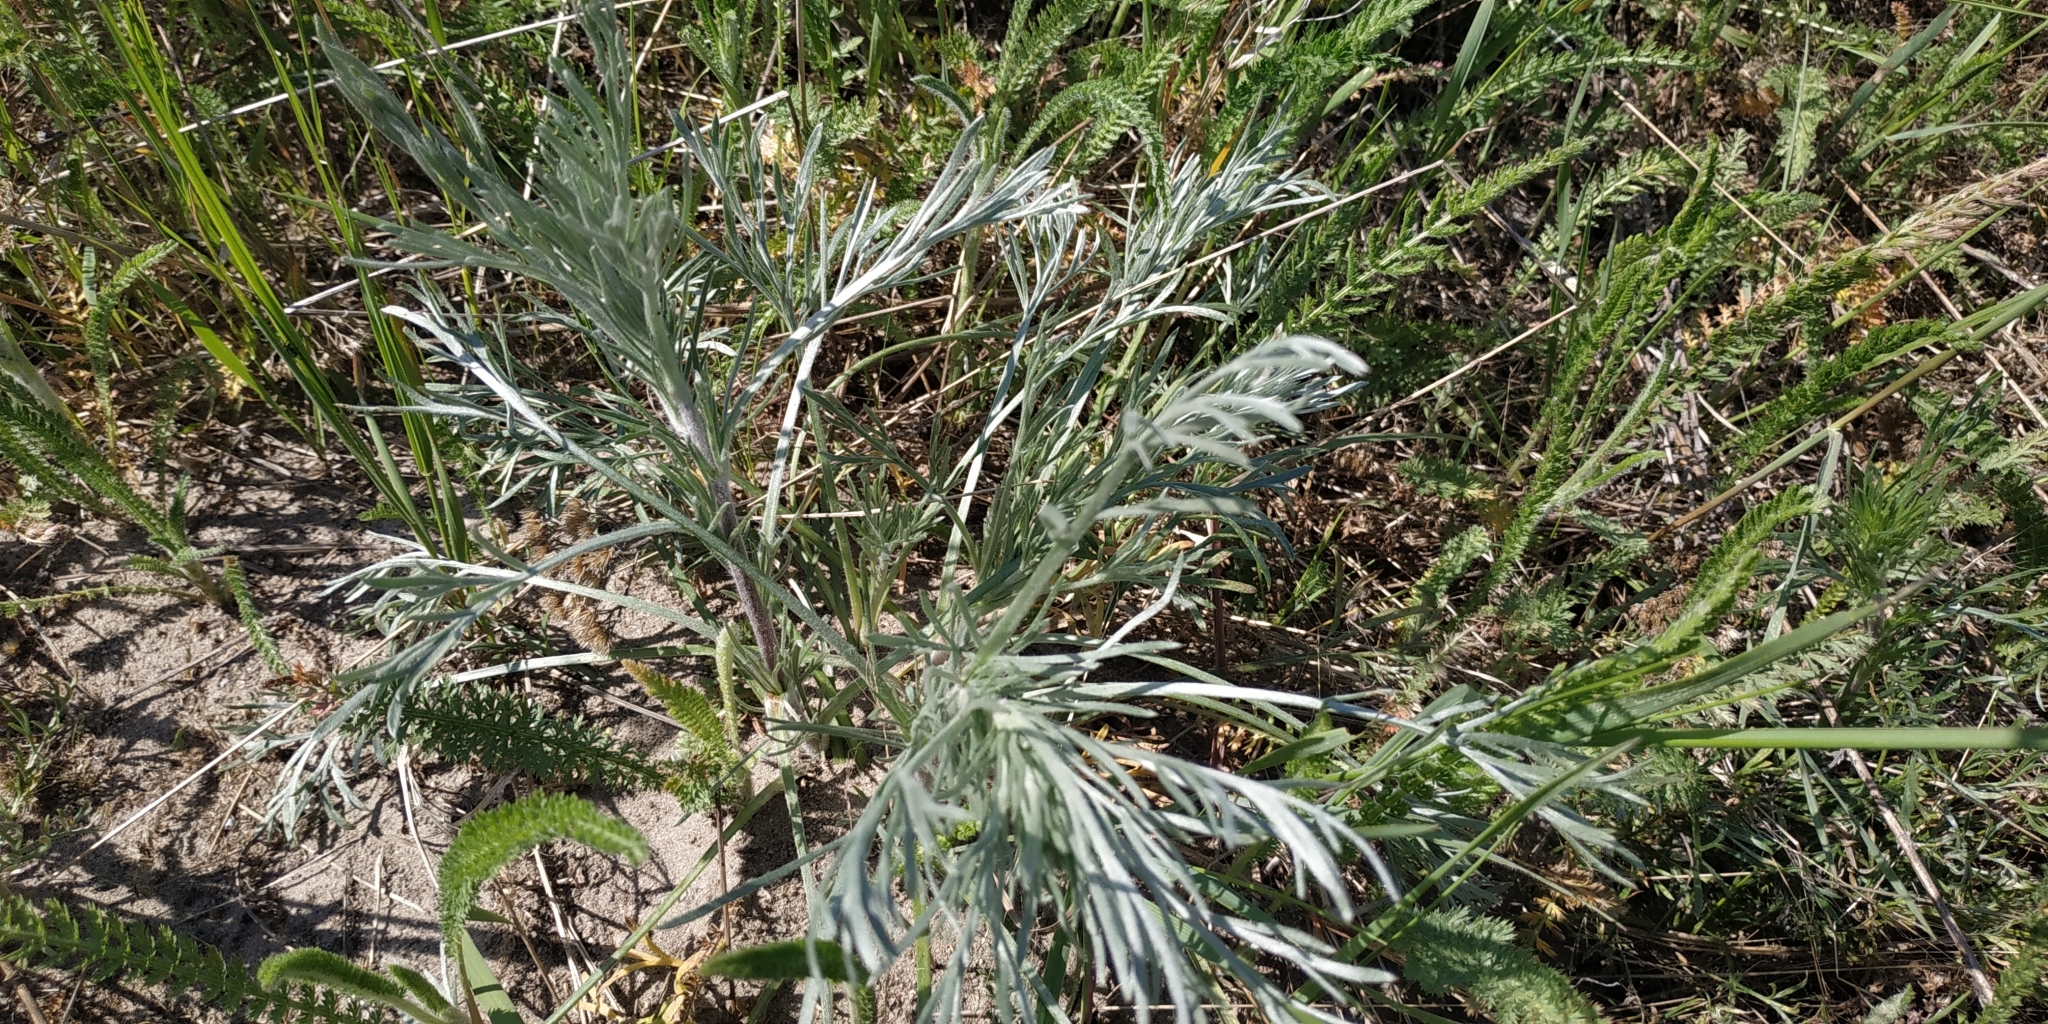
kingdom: Plantae
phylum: Tracheophyta
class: Magnoliopsida
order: Asterales
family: Asteraceae
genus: Artemisia
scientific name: Artemisia sericea
